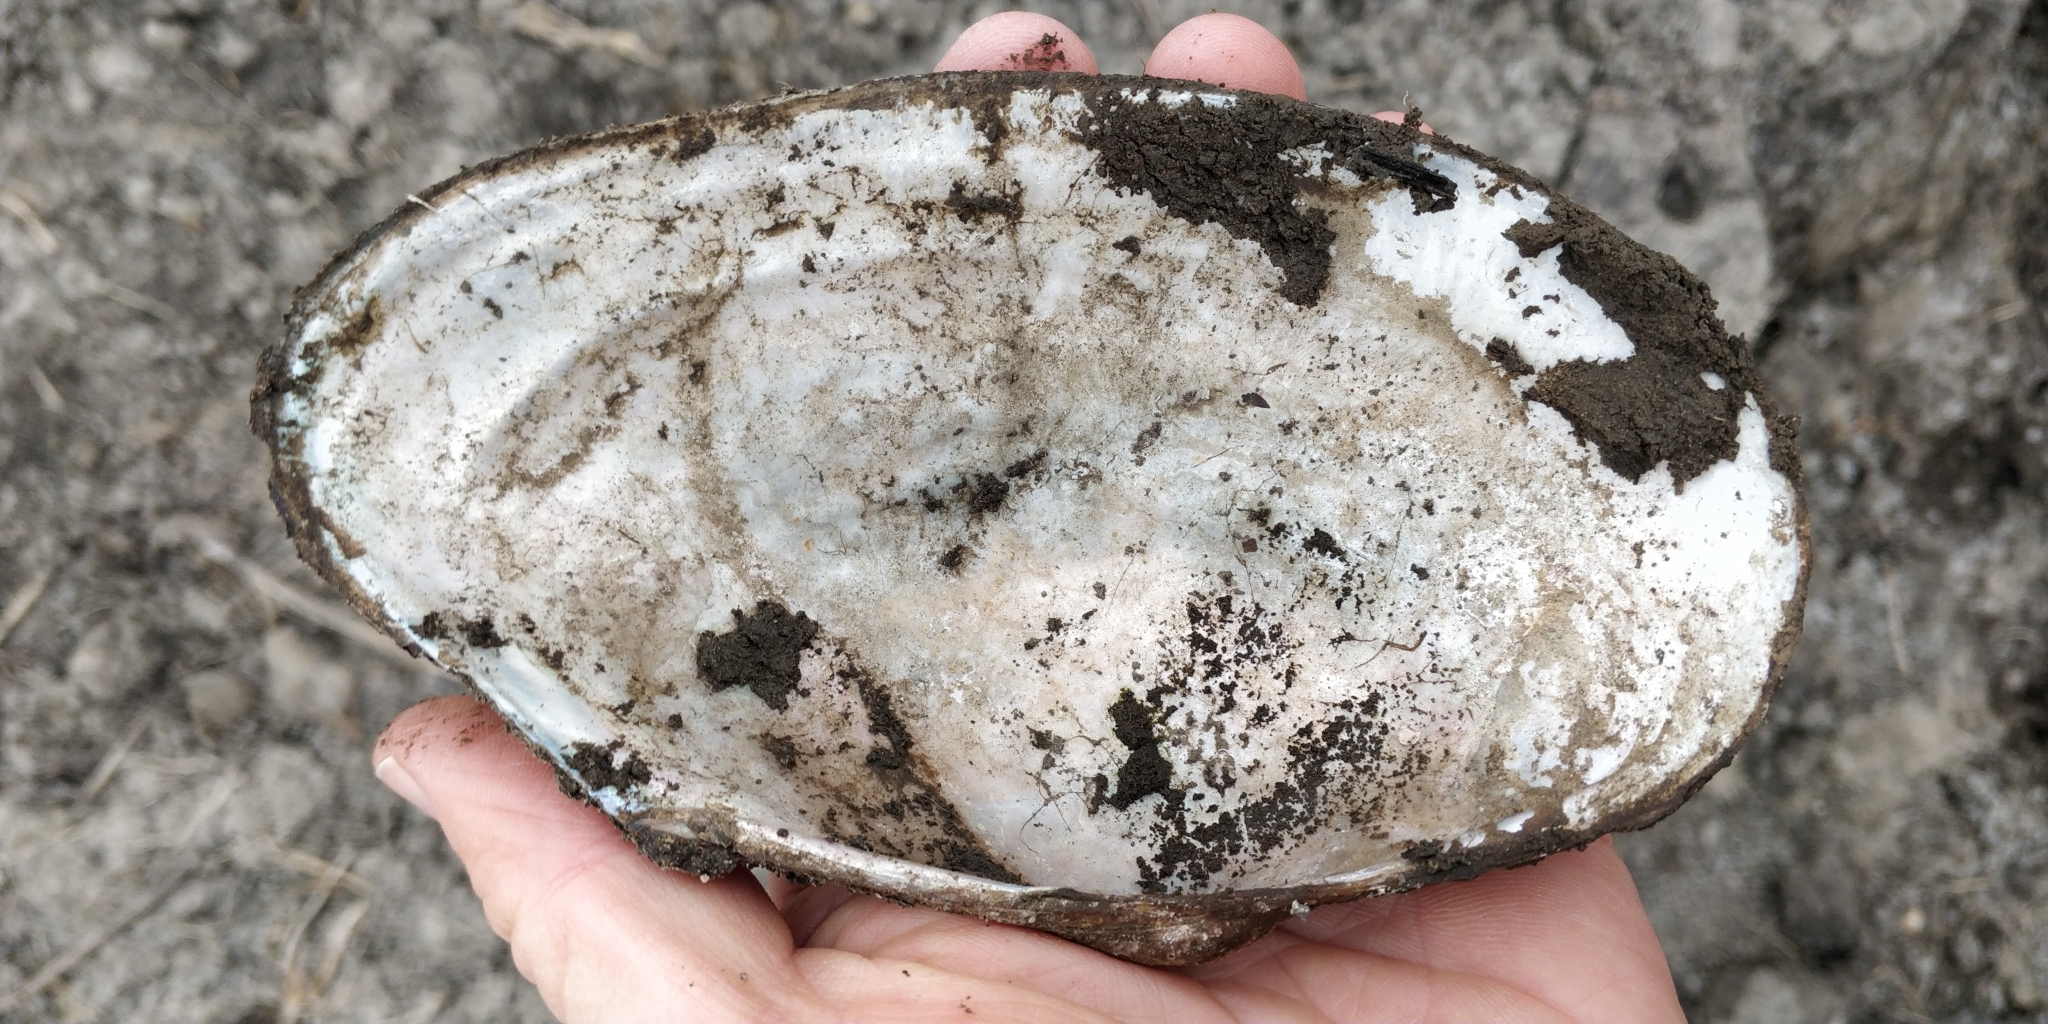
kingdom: Animalia
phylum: Mollusca
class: Bivalvia
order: Unionida
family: Unionidae
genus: Pyganodon
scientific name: Pyganodon grandis
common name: Giant floater
